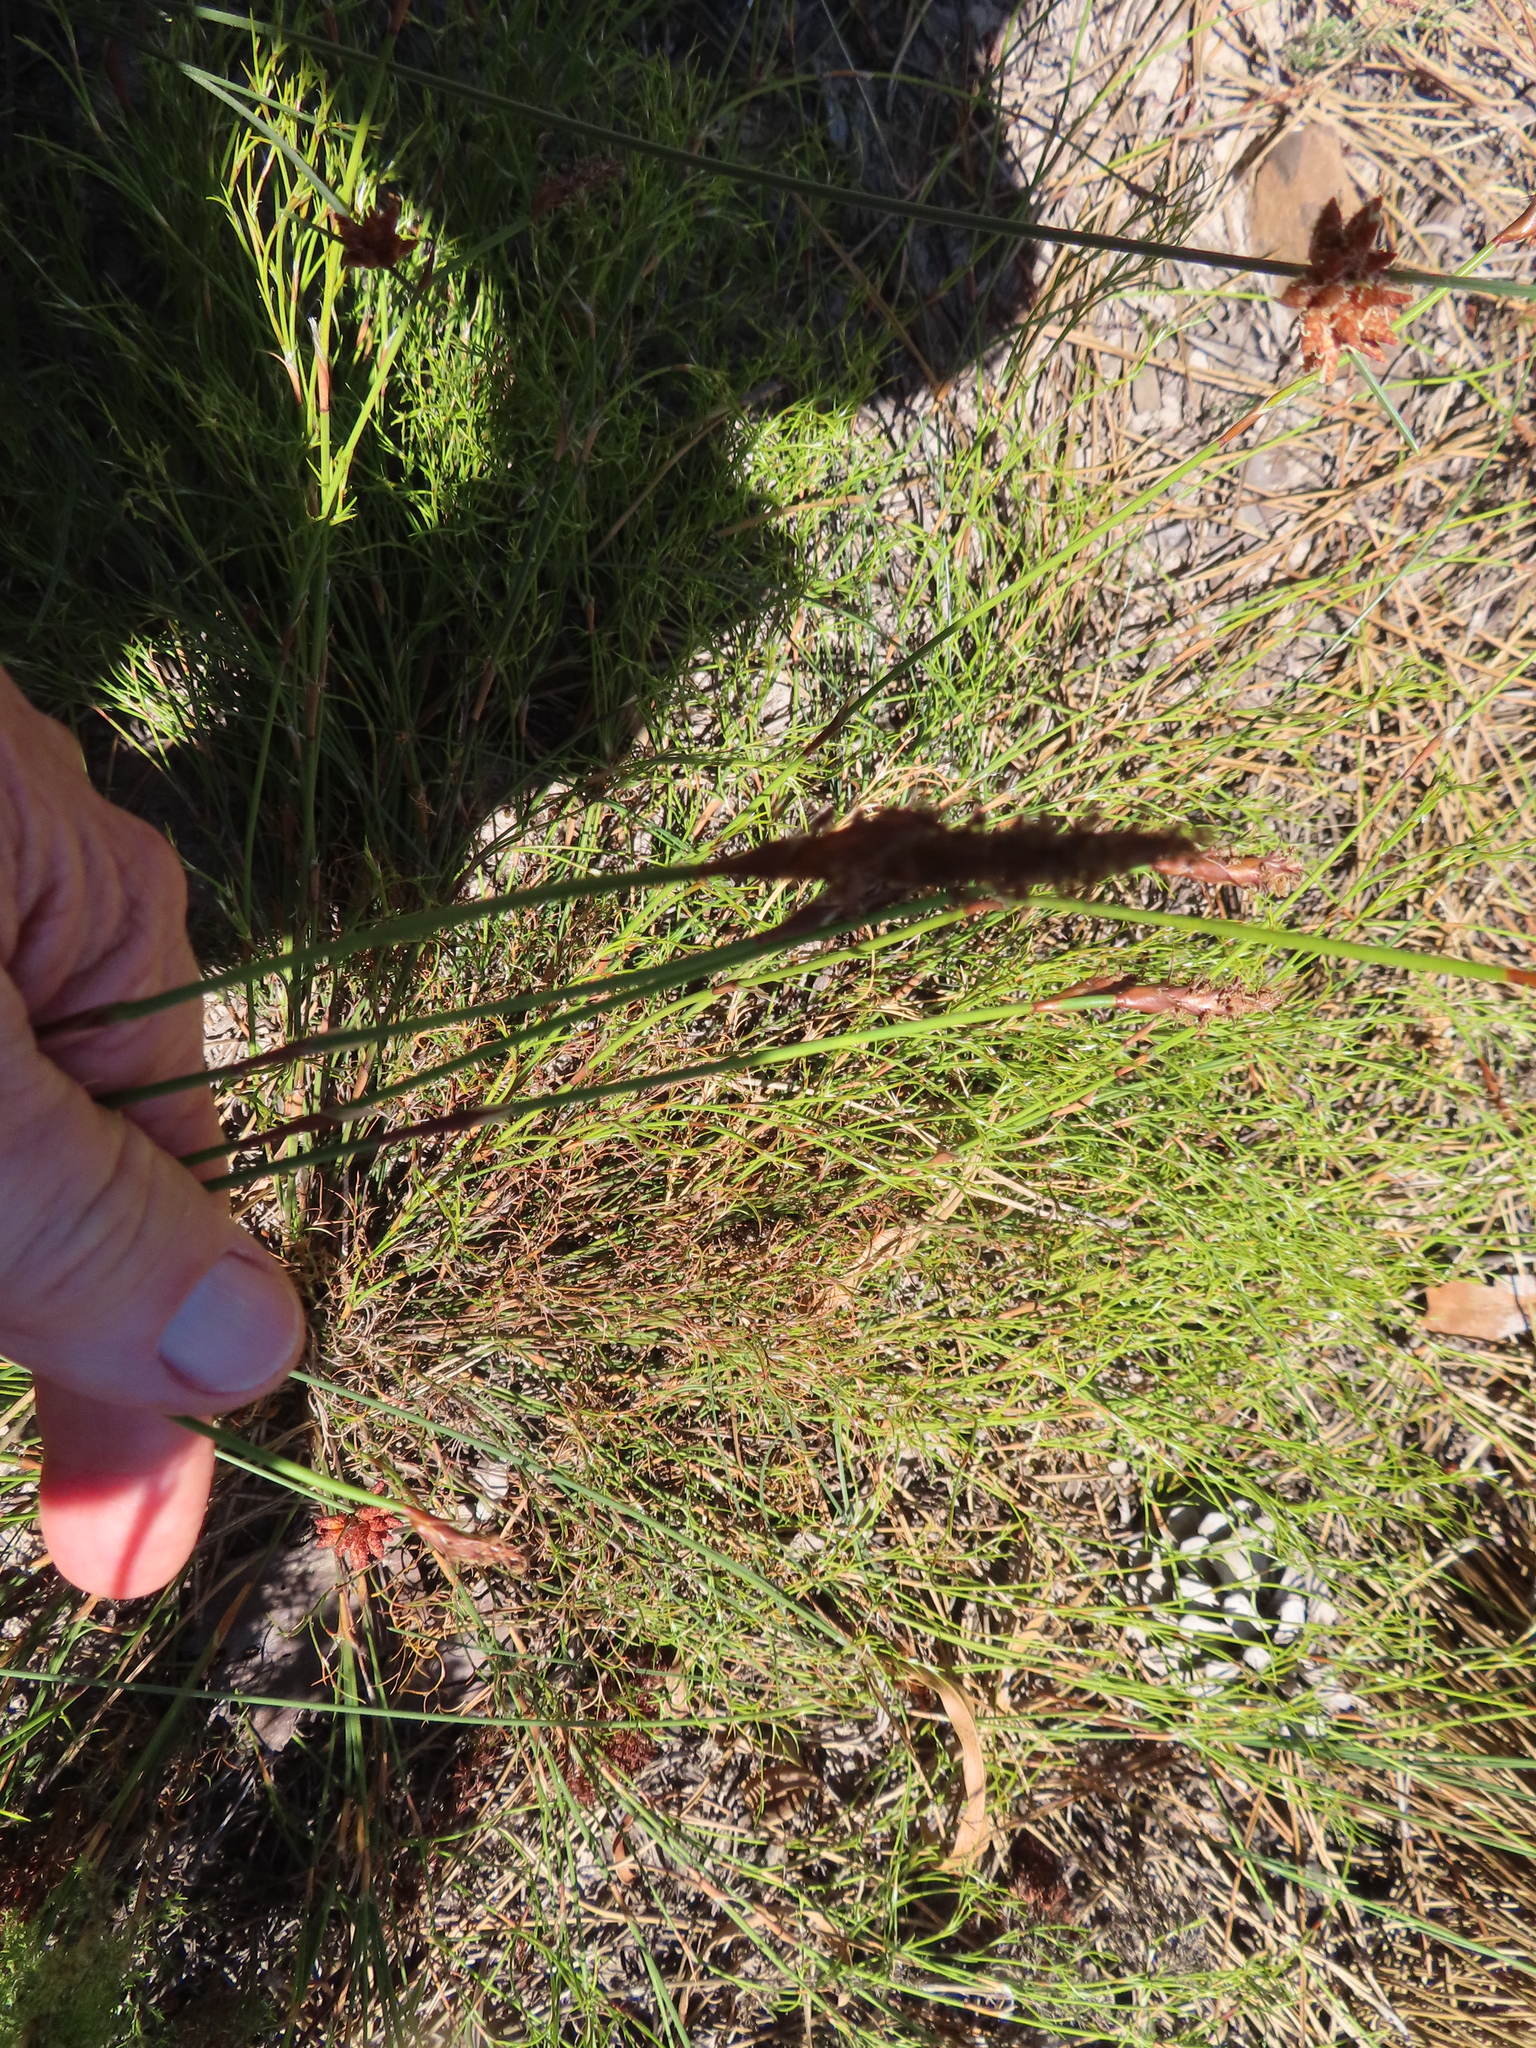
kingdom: Plantae
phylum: Tracheophyta
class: Liliopsida
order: Poales
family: Restionaceae
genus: Restio
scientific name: Restio capensis
